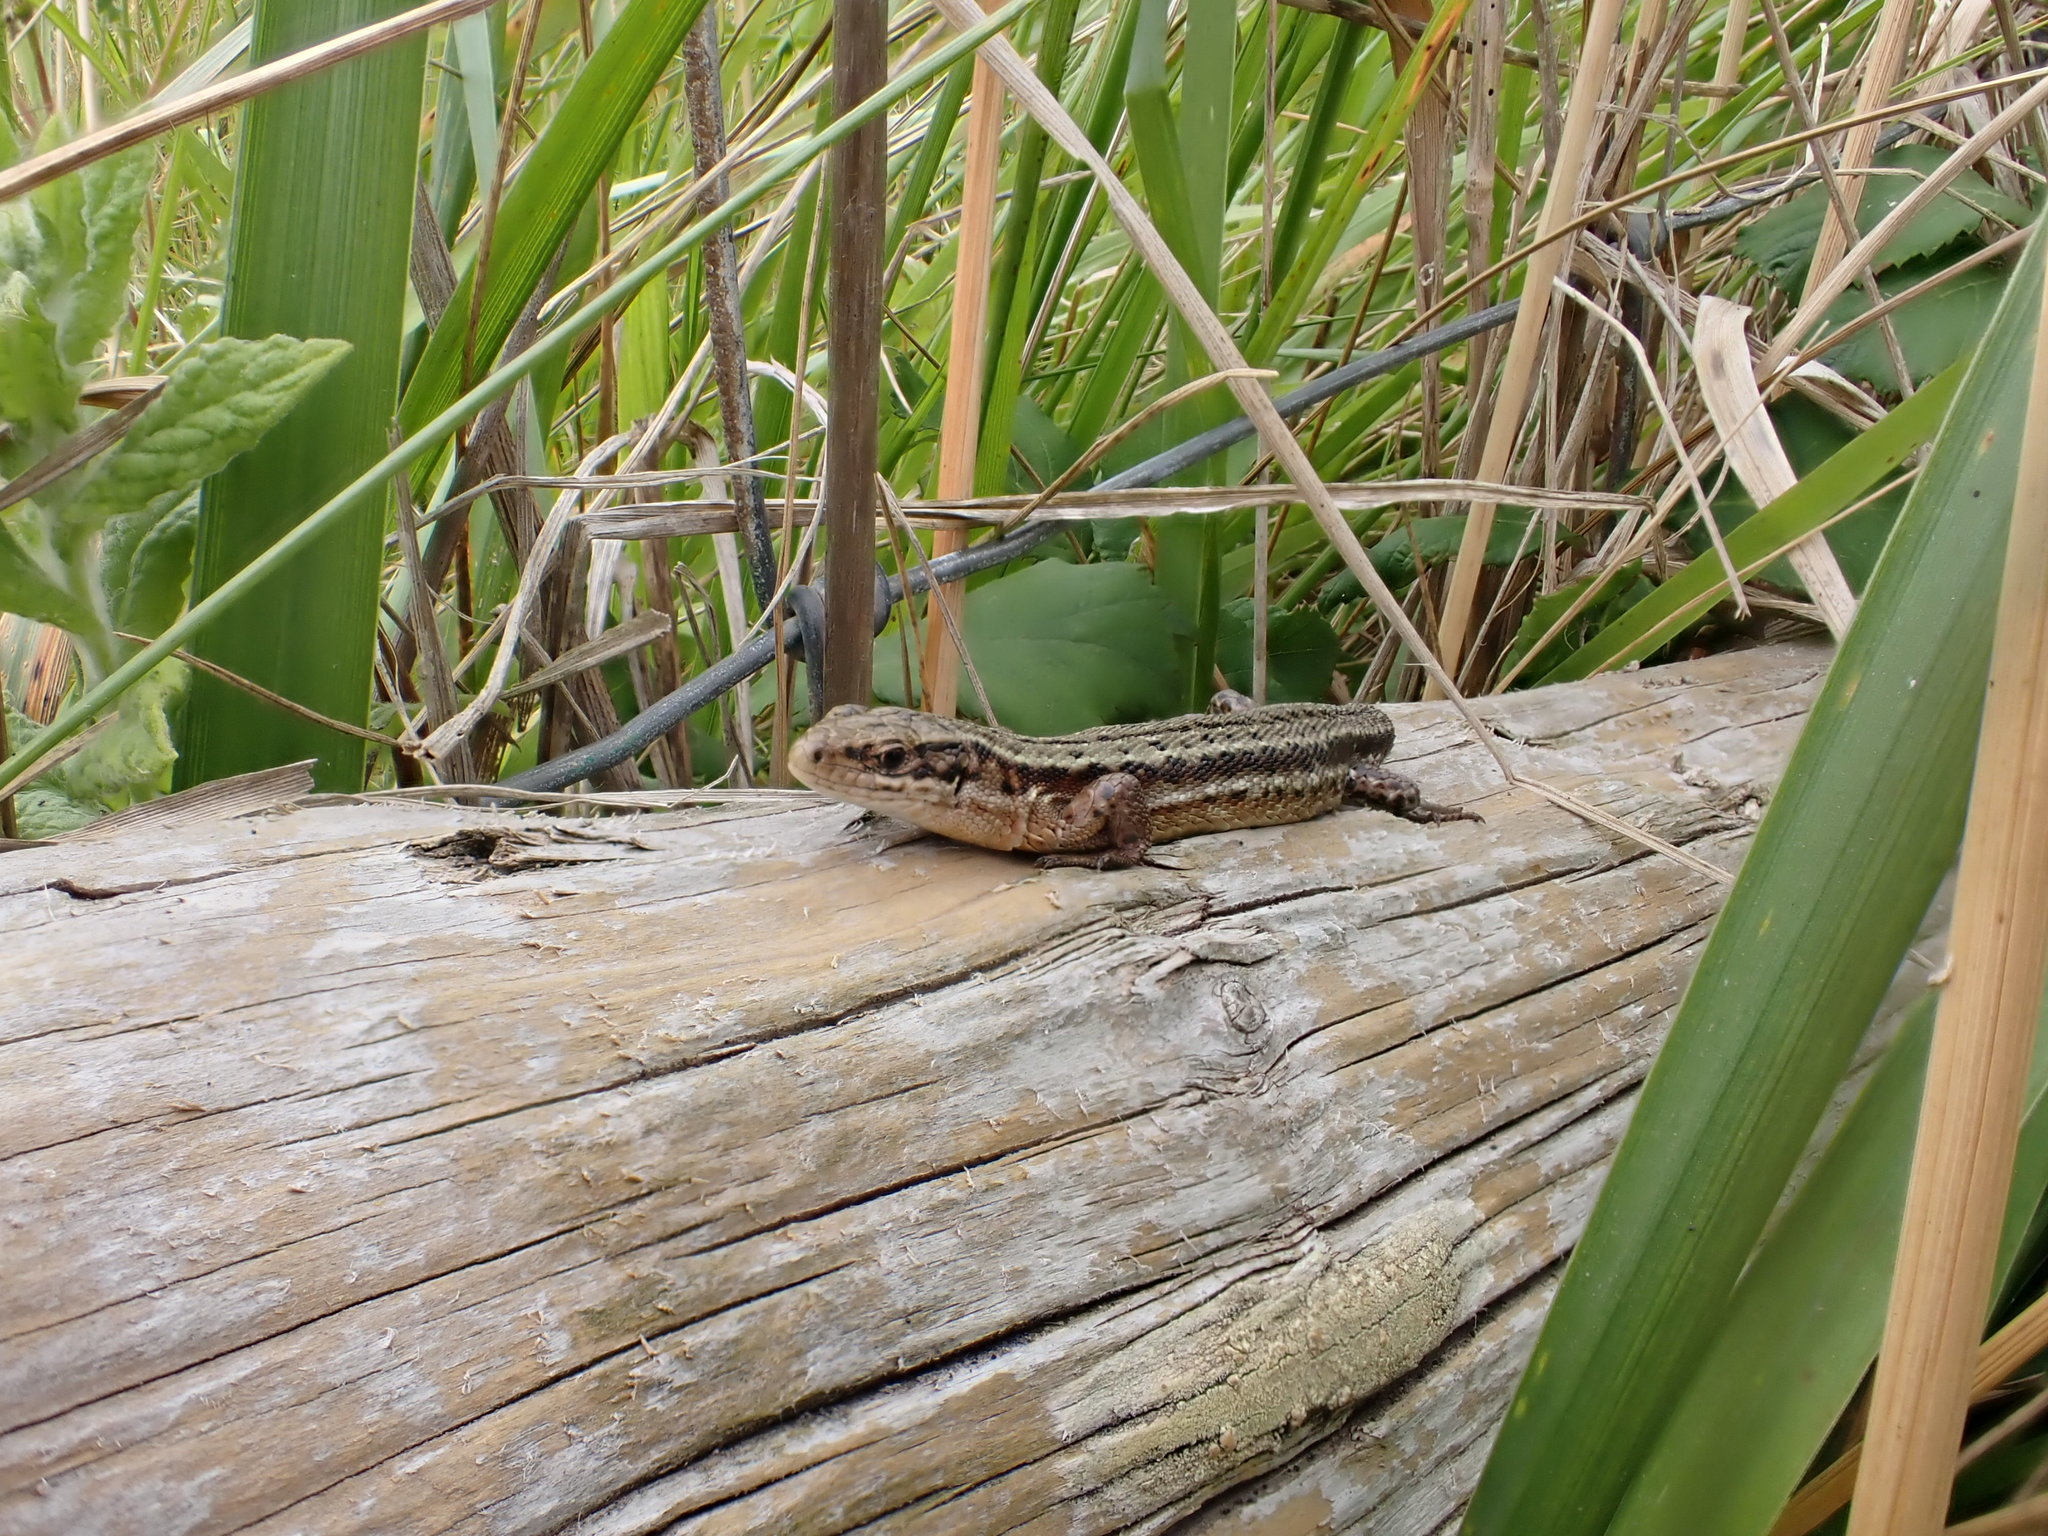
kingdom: Animalia
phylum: Chordata
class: Squamata
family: Lacertidae
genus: Zootoca
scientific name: Zootoca vivipara
